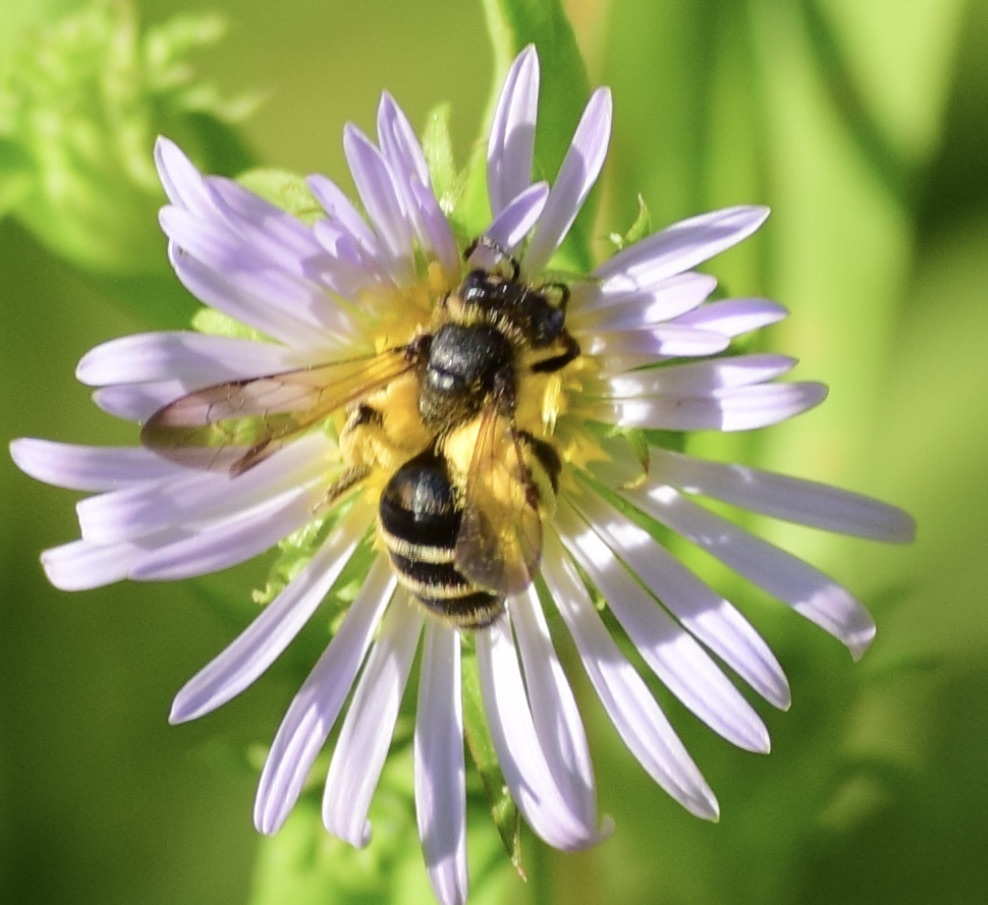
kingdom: Animalia
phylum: Arthropoda
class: Insecta
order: Hymenoptera
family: Andrenidae
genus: Andrena
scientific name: Andrena robervalensis
